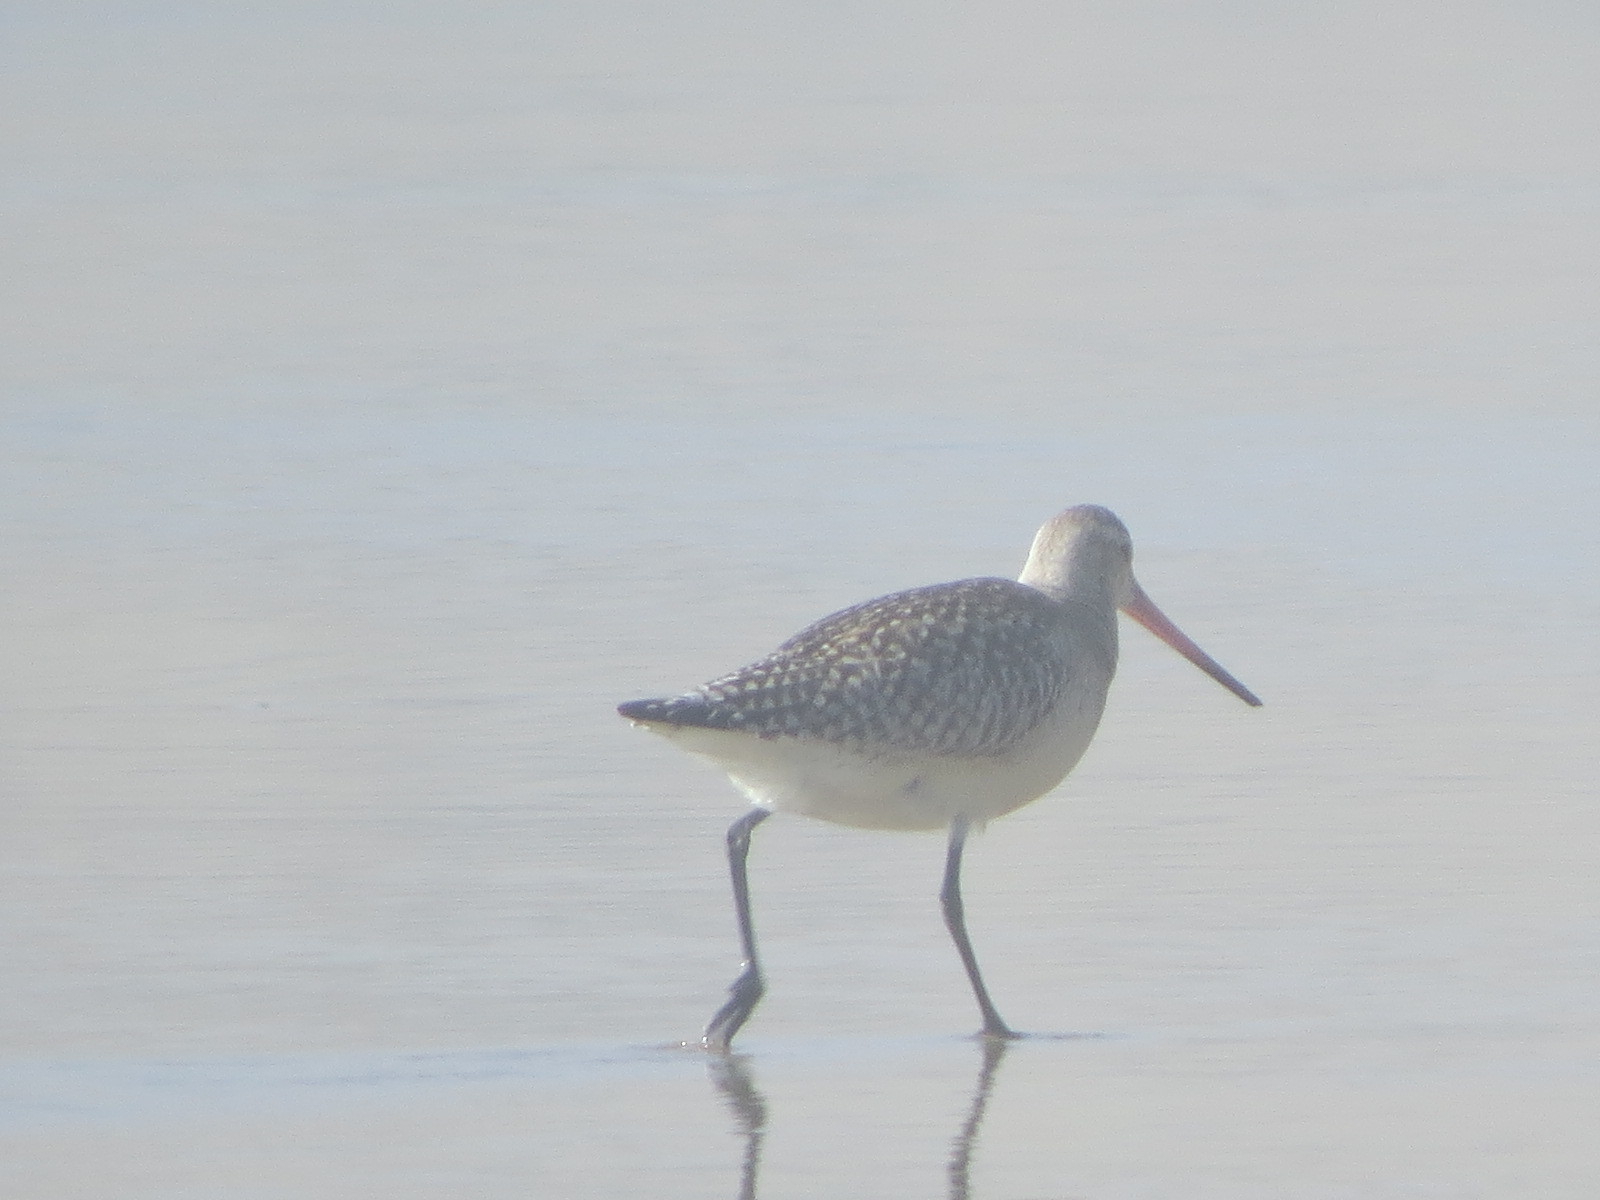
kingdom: Animalia
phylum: Chordata
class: Aves
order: Charadriiformes
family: Scolopacidae
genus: Limosa
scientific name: Limosa lapponica
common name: Bar-tailed godwit
